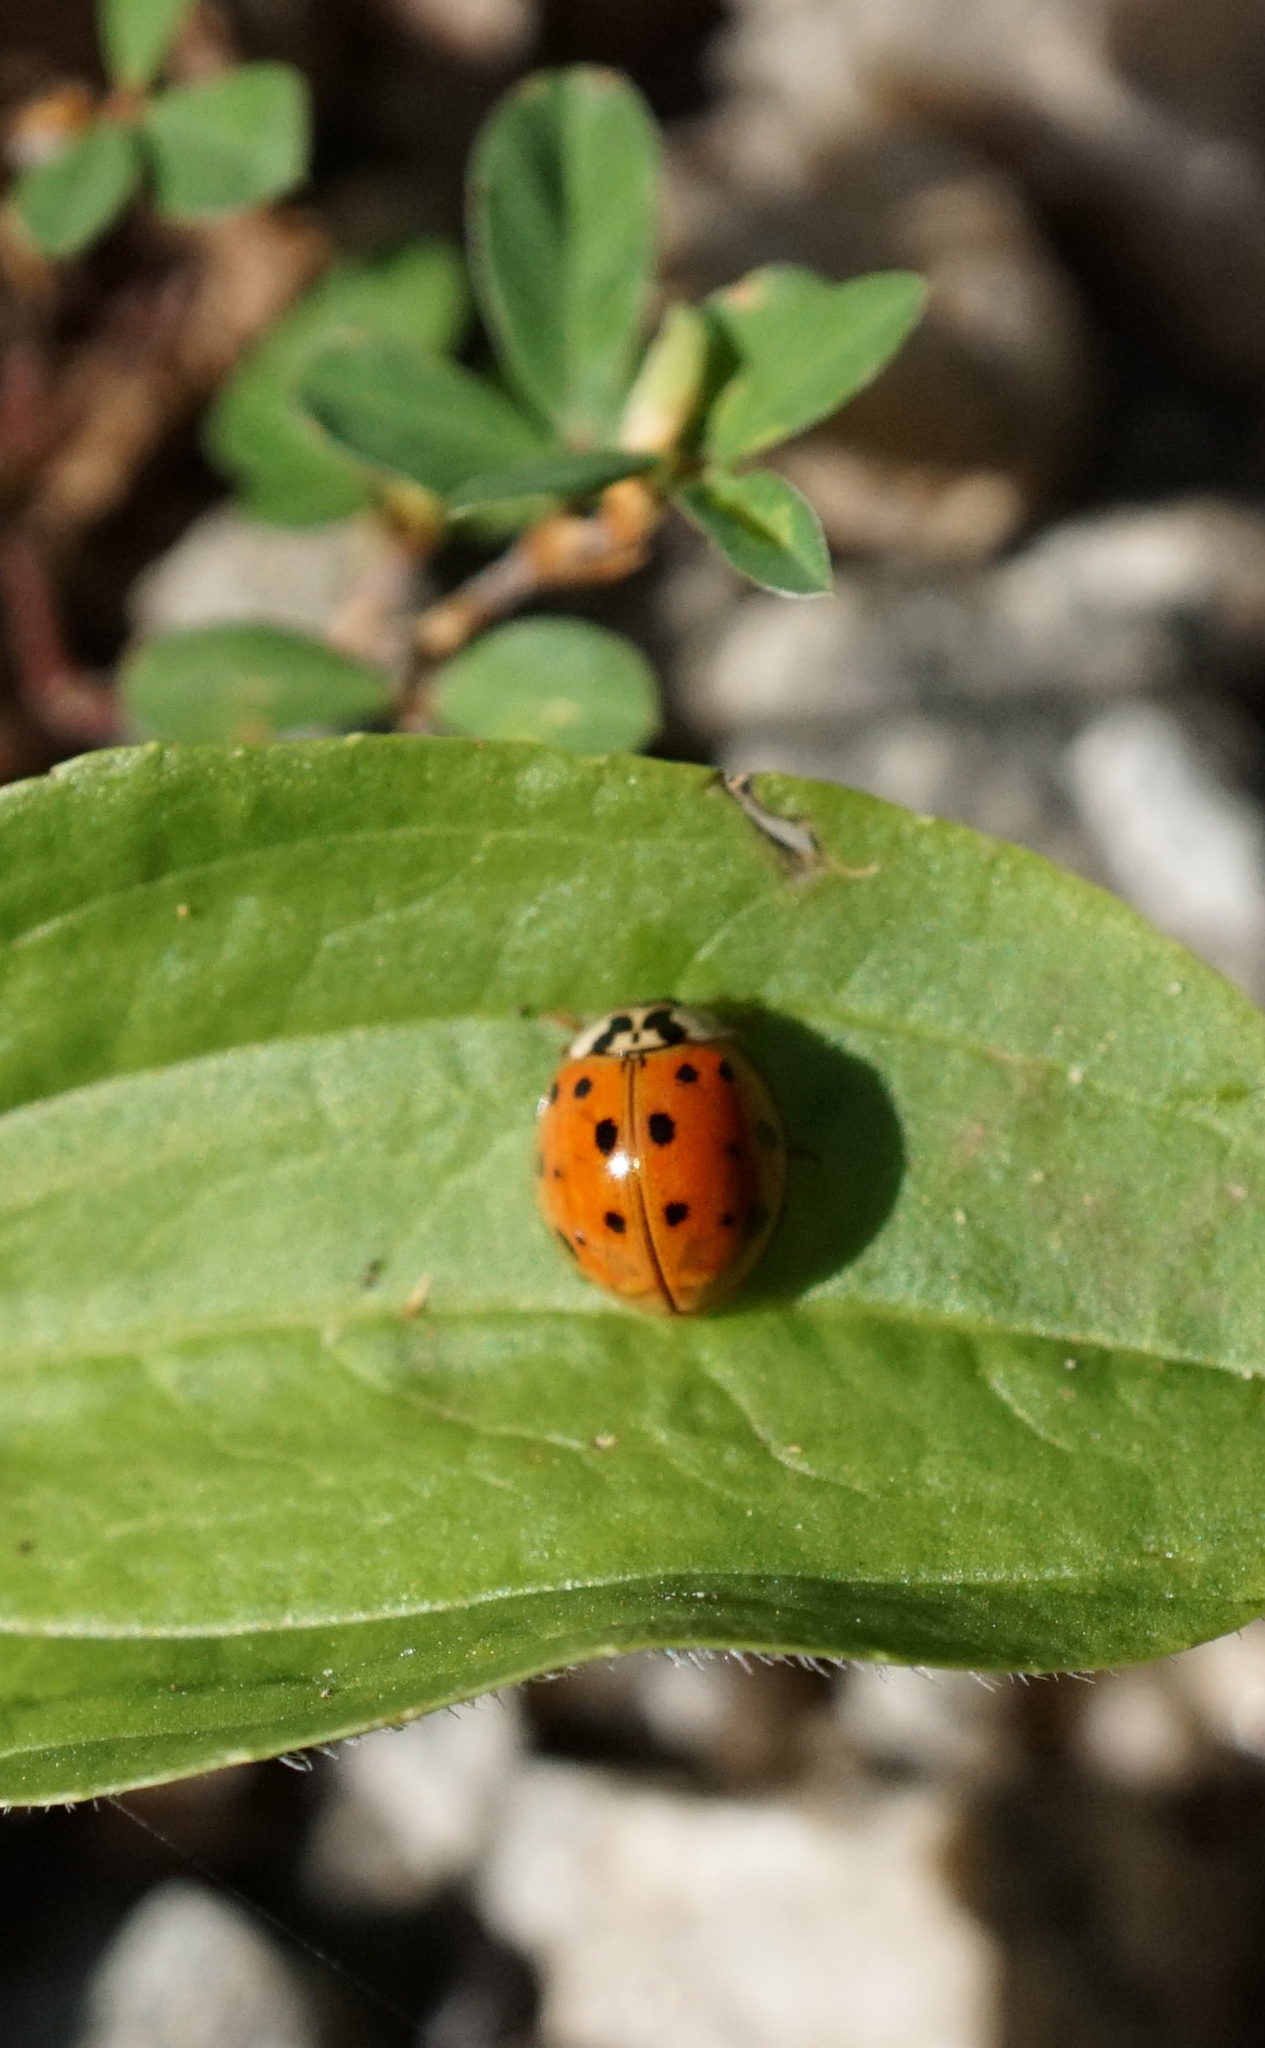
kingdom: Animalia
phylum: Arthropoda
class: Insecta
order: Coleoptera
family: Coccinellidae
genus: Harmonia
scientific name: Harmonia axyridis
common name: Harlequin ladybird
